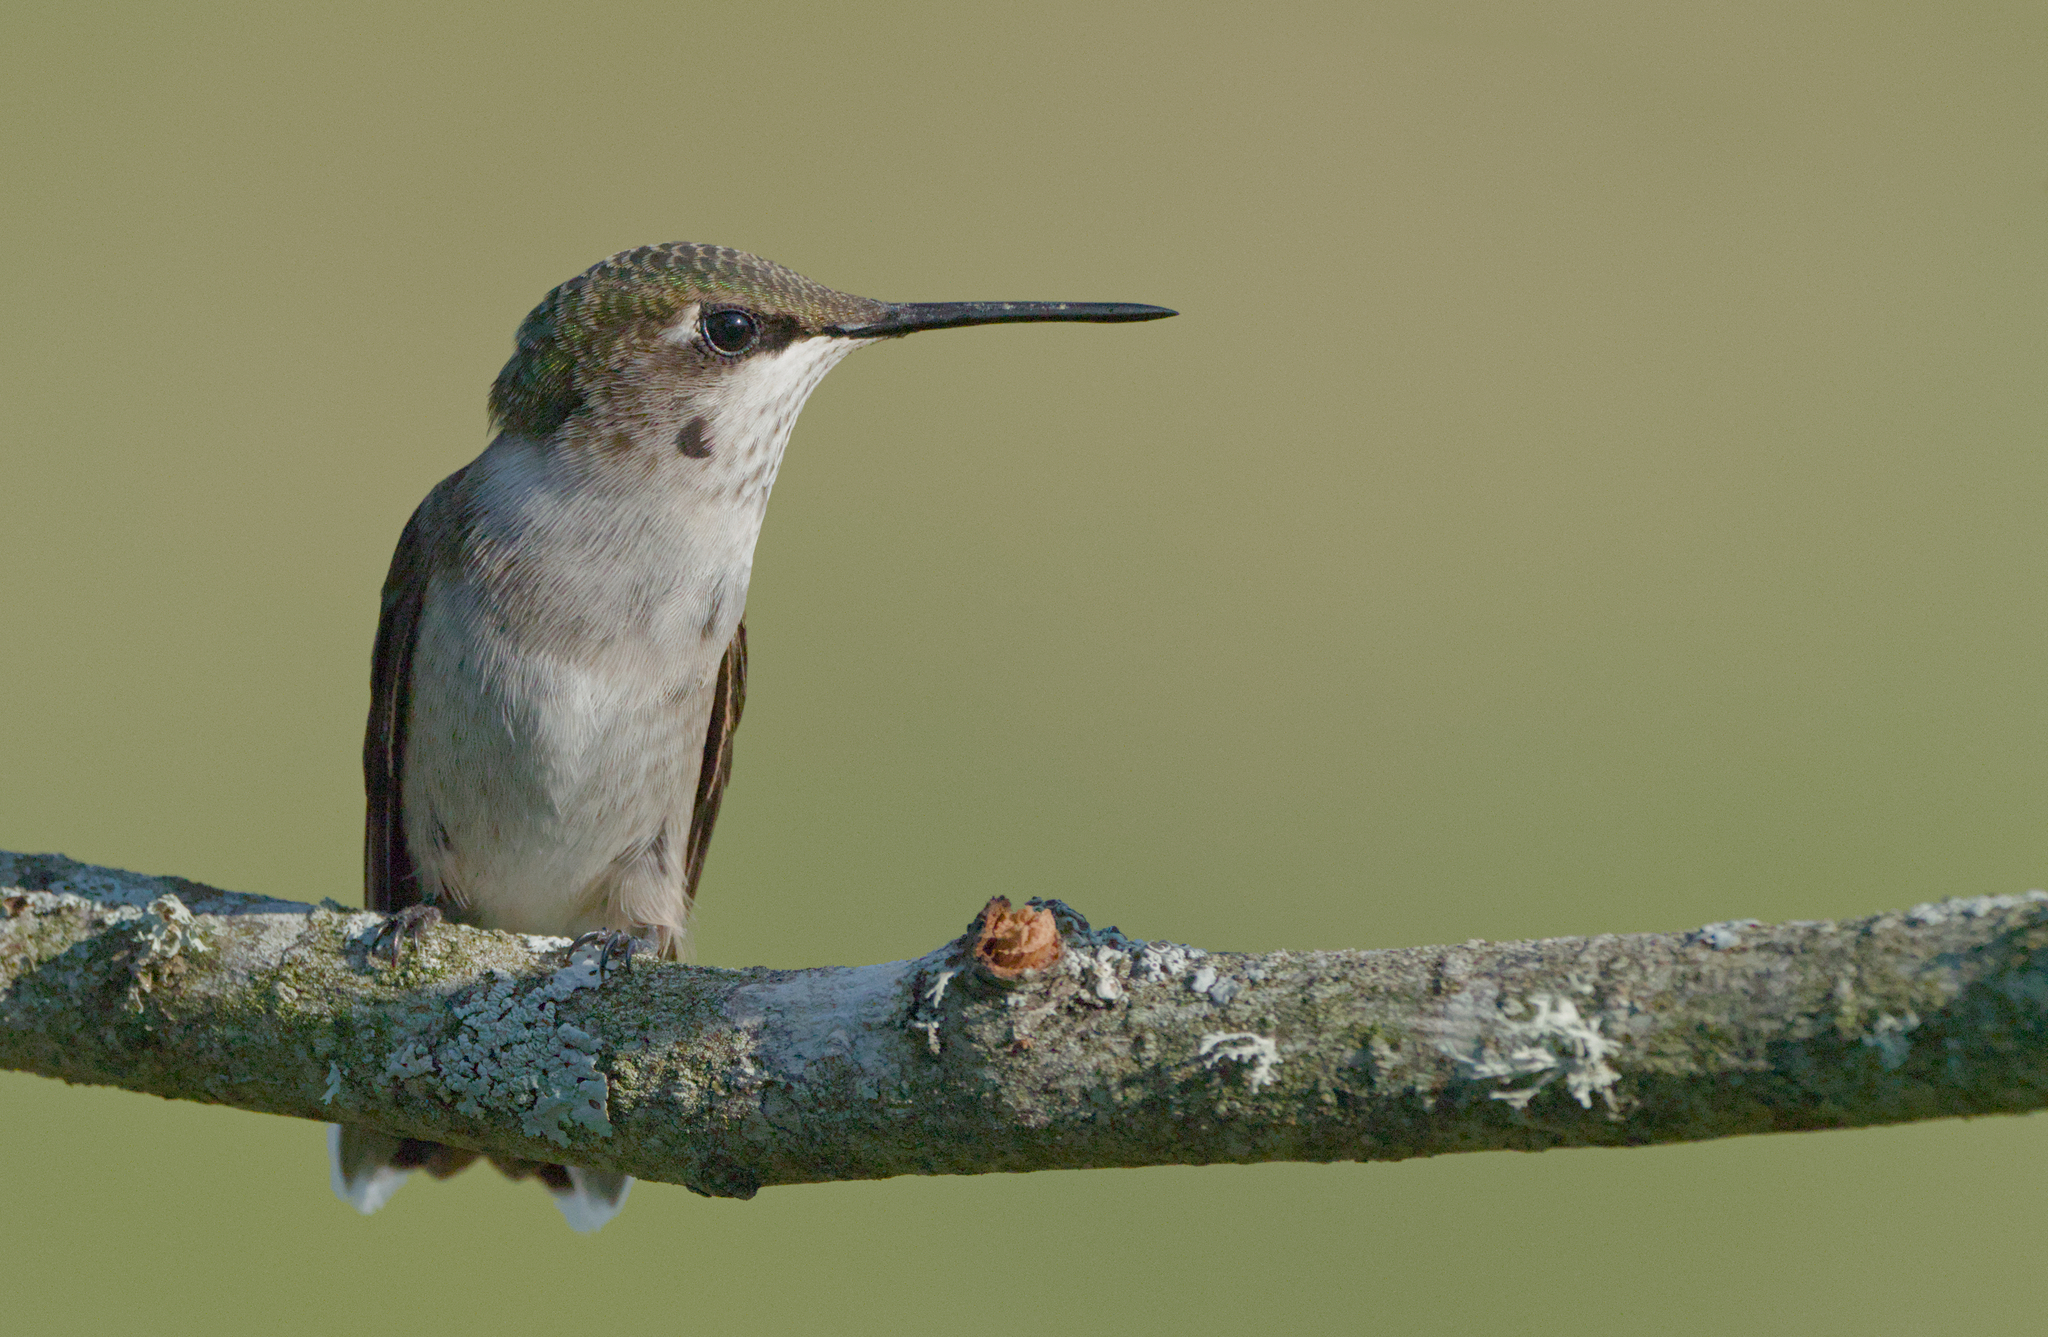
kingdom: Animalia
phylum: Chordata
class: Aves
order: Apodiformes
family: Trochilidae
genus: Archilochus
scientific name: Archilochus colubris
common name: Ruby-throated hummingbird
